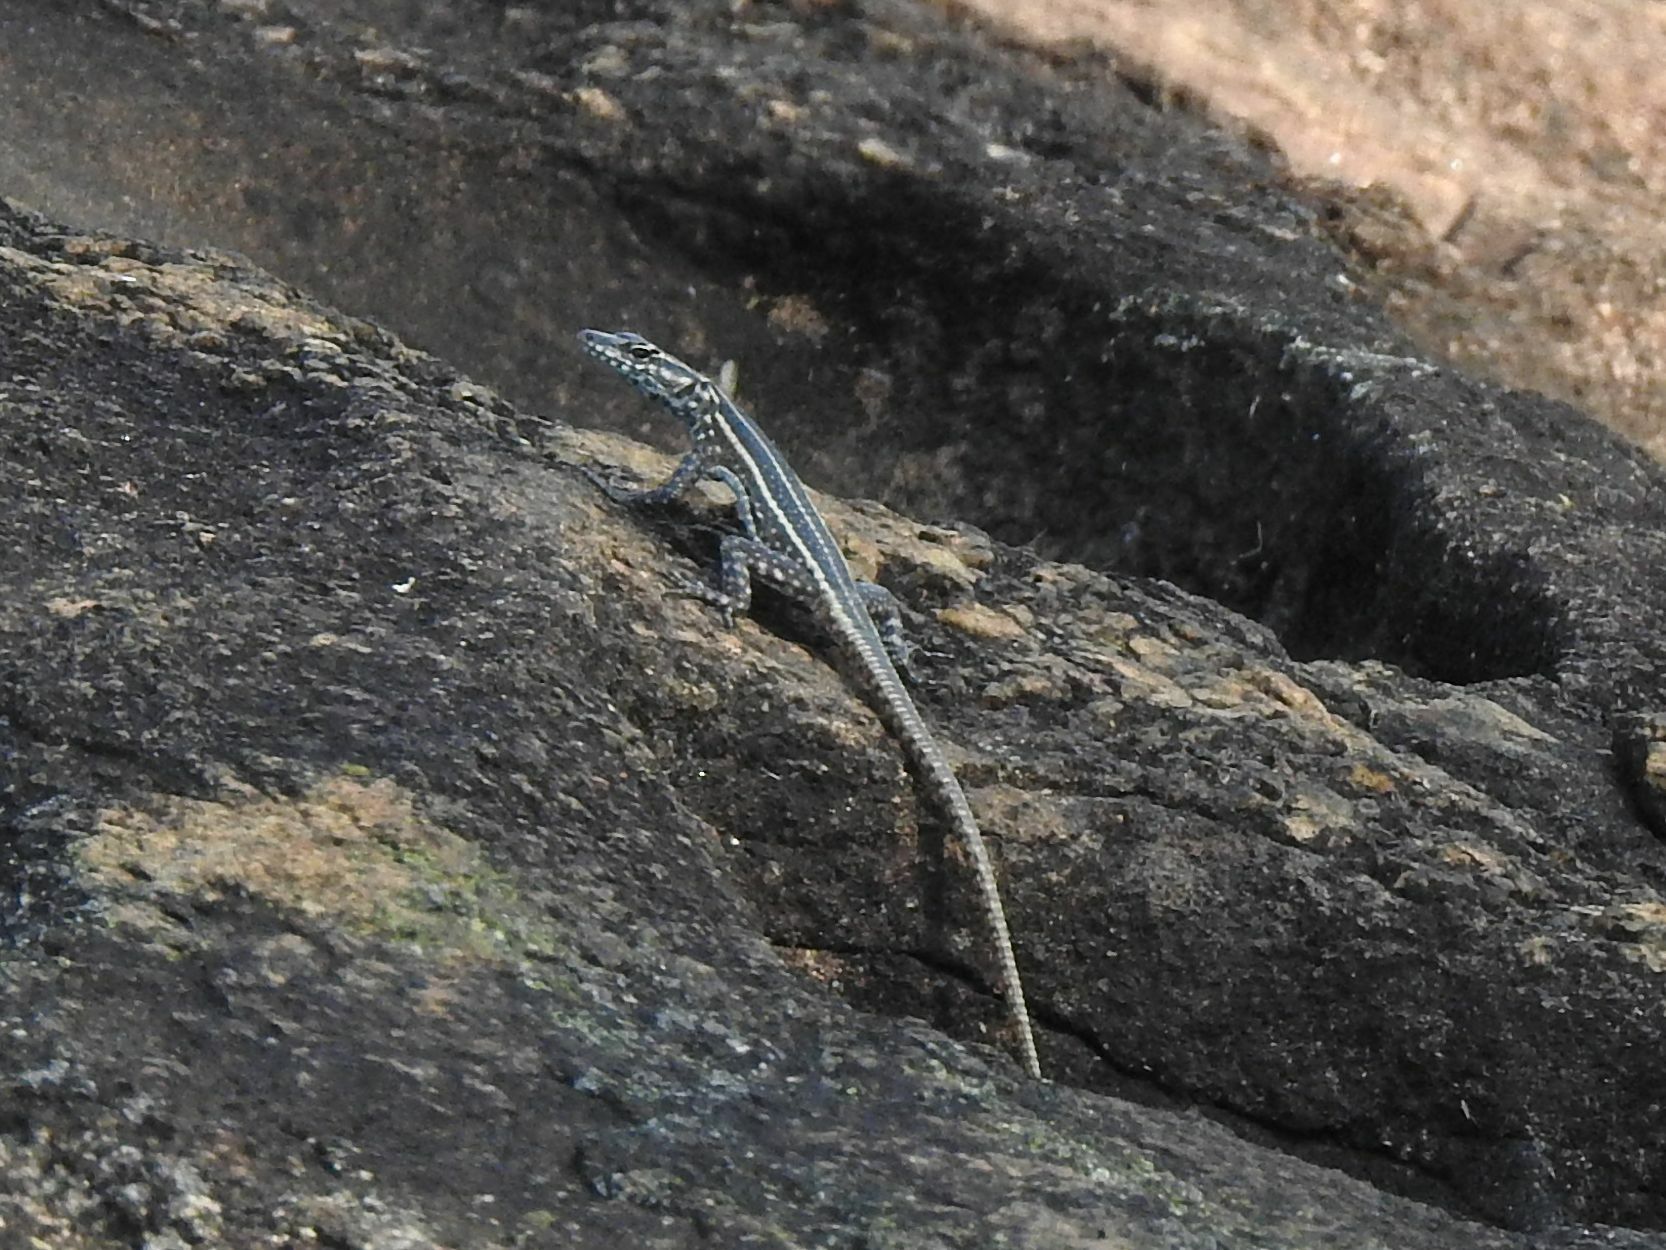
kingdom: Animalia
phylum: Chordata
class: Squamata
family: Cordylidae
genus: Platysaurus
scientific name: Platysaurus intermedius
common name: Common flat lizard
